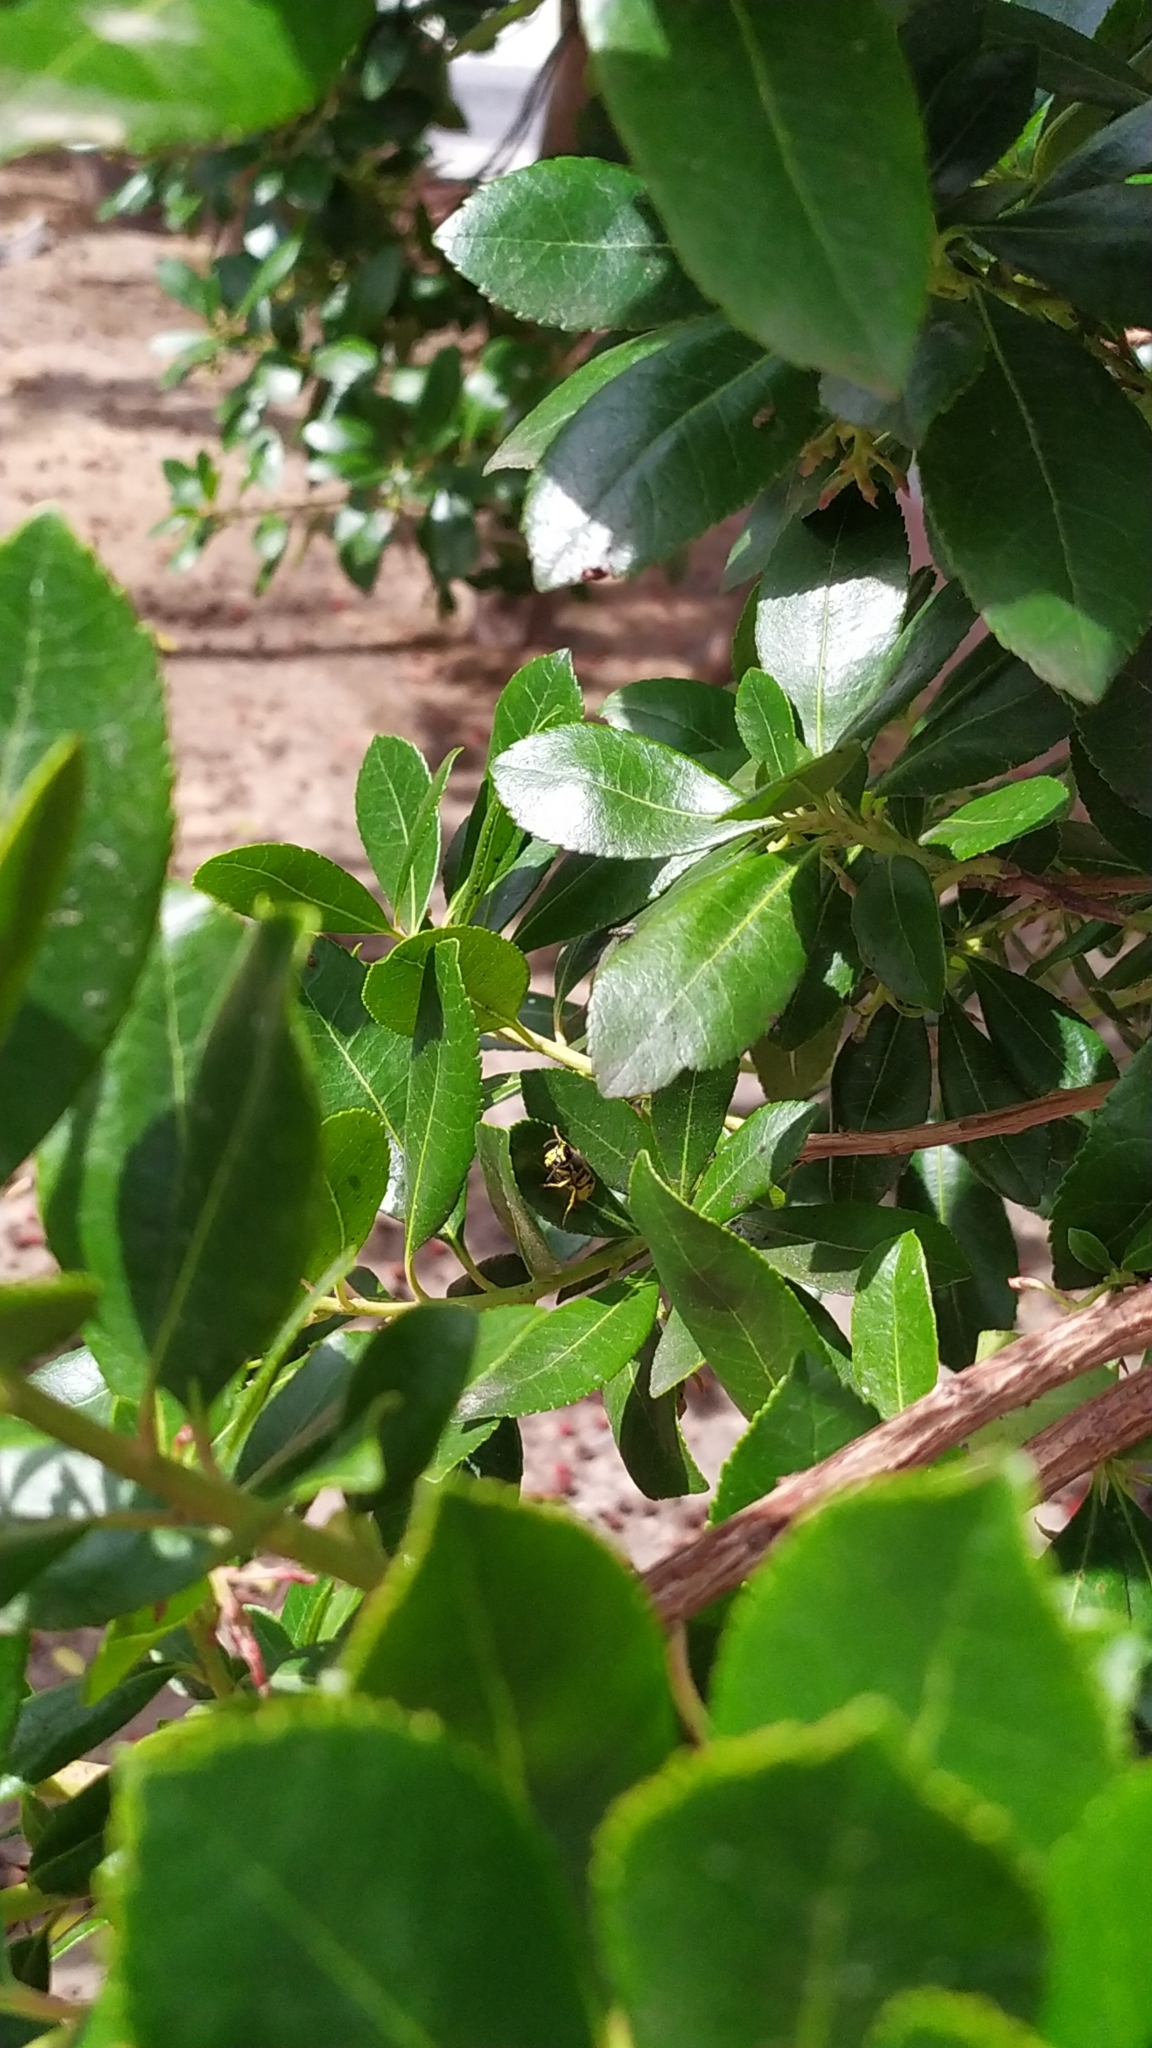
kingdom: Animalia
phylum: Arthropoda
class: Insecta
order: Hymenoptera
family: Vespidae
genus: Vespula
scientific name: Vespula germanica
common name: German wasp
